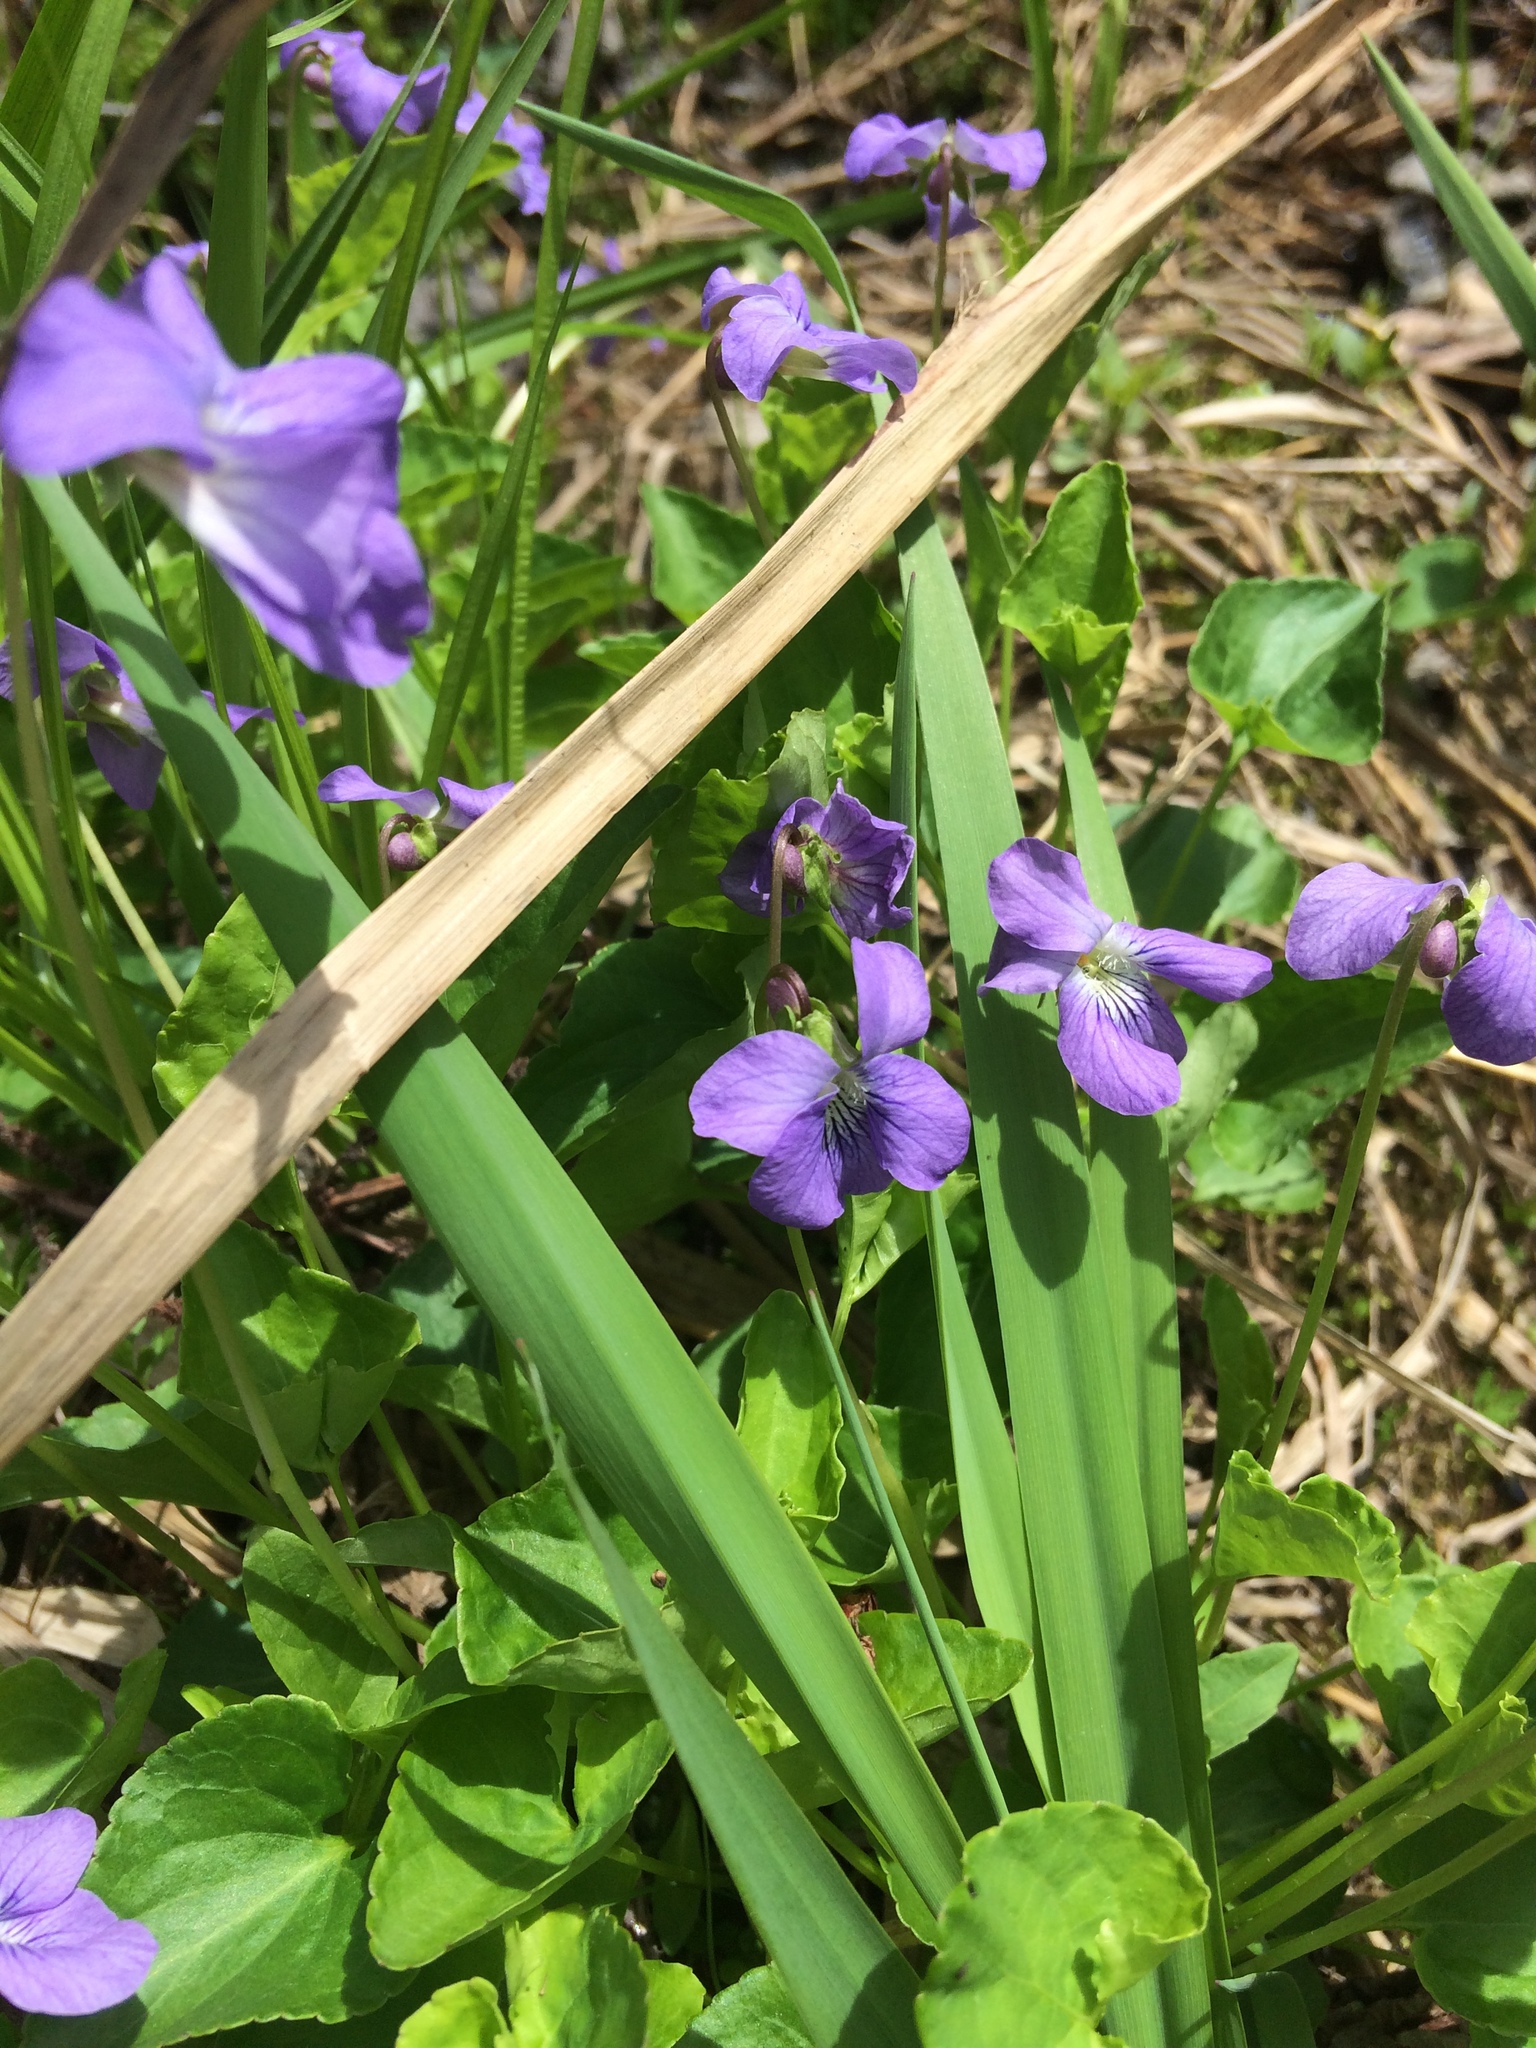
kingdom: Plantae
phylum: Tracheophyta
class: Magnoliopsida
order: Malpighiales
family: Violaceae
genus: Viola
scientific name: Viola
